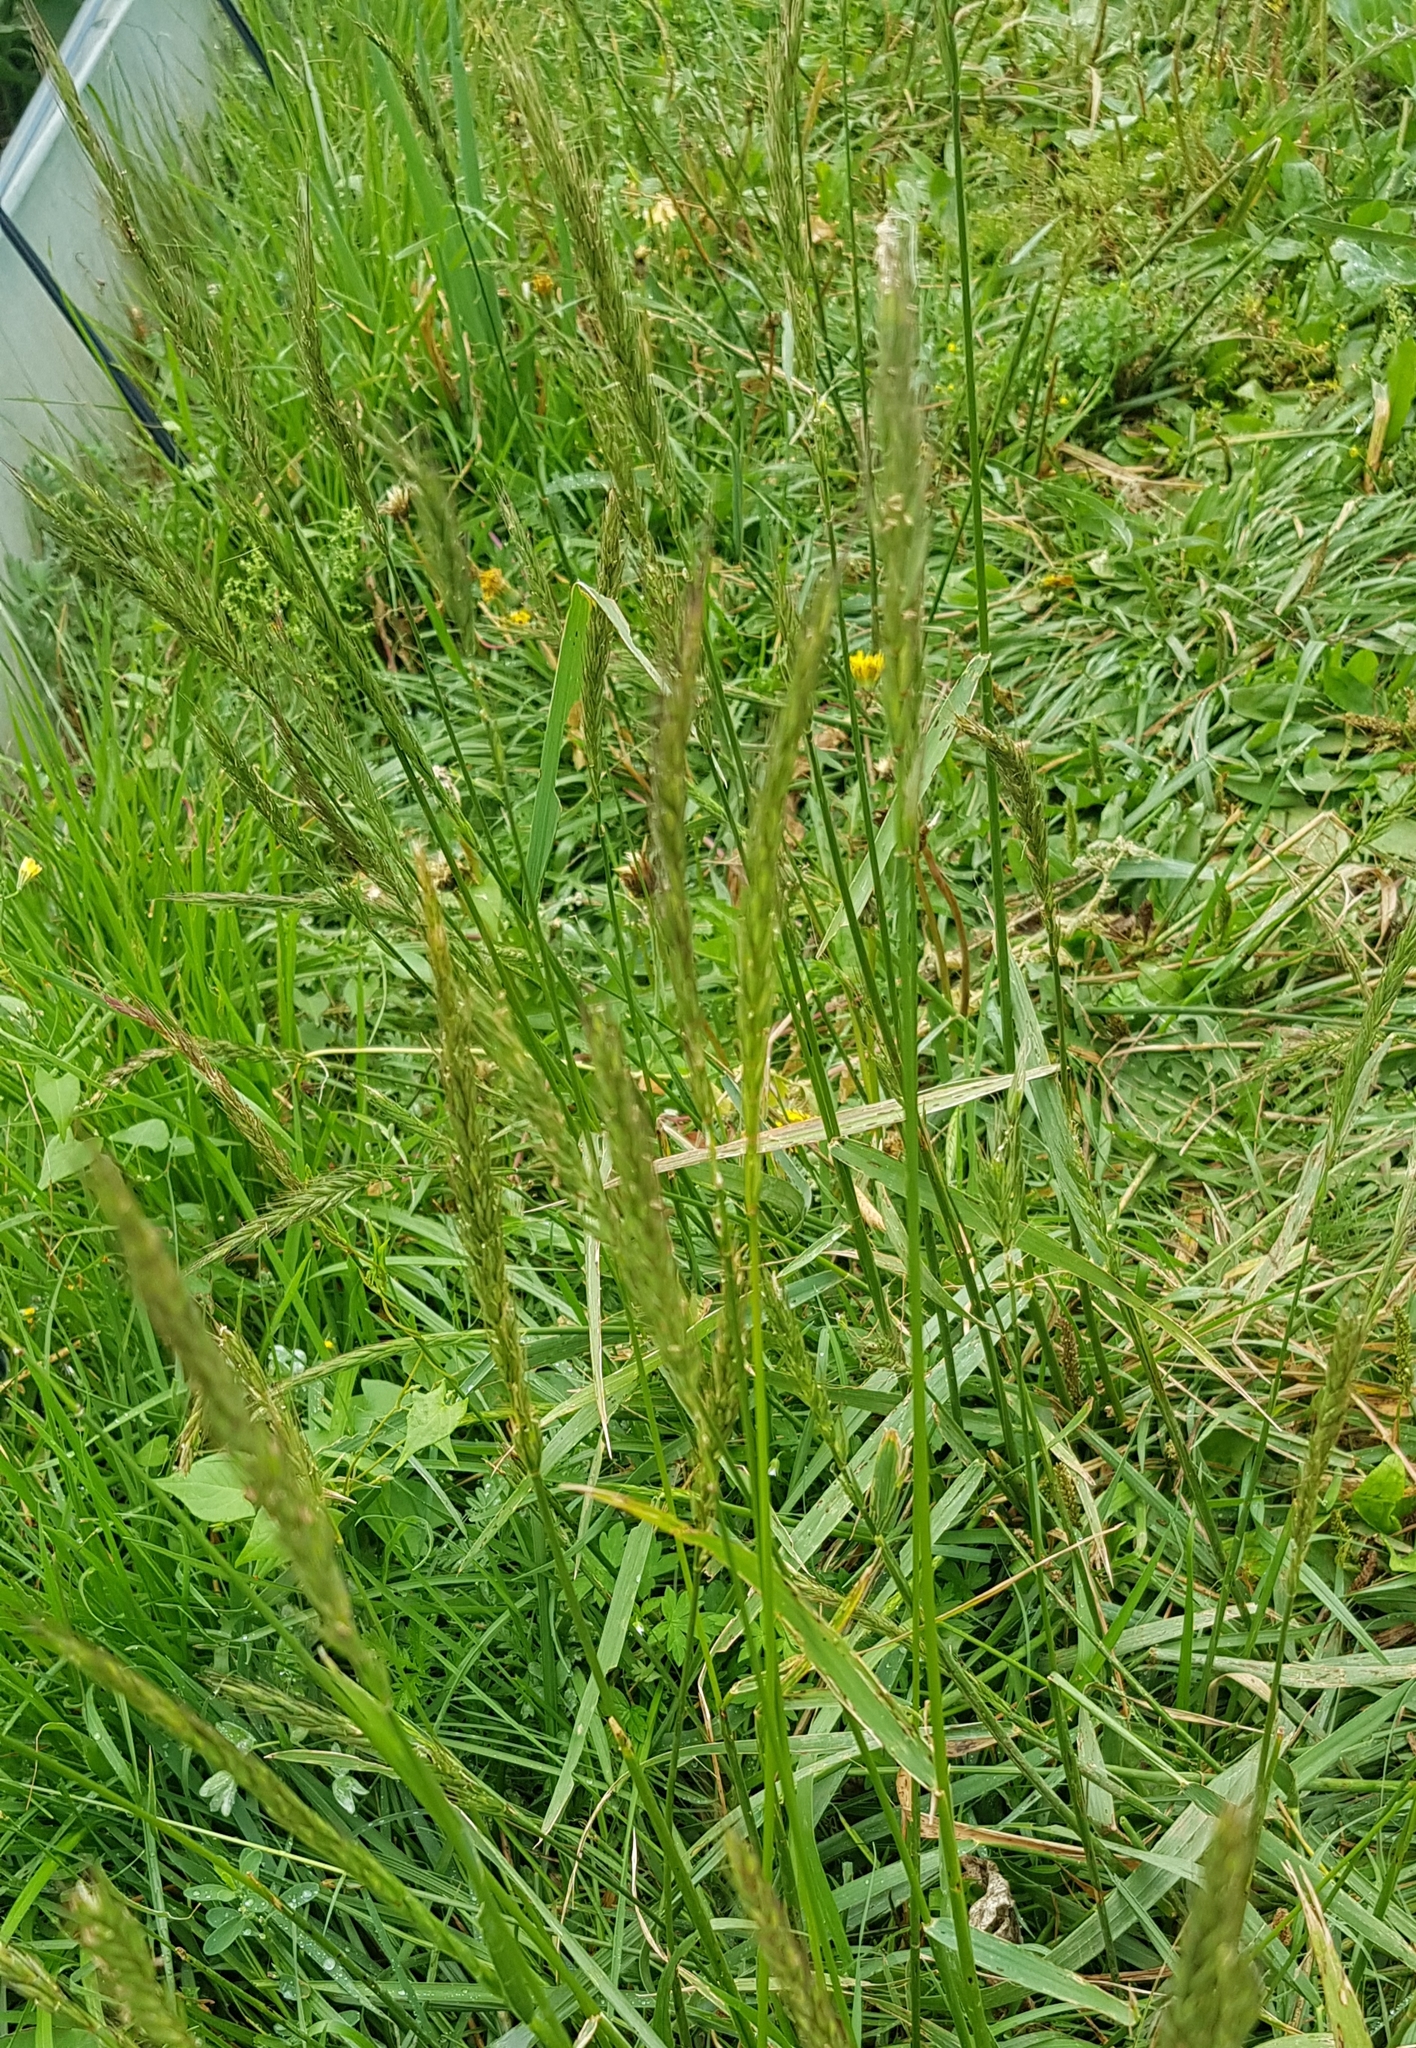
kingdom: Plantae
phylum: Tracheophyta
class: Liliopsida
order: Poales
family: Poaceae
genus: Elymus
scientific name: Elymus repens
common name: Quackgrass
